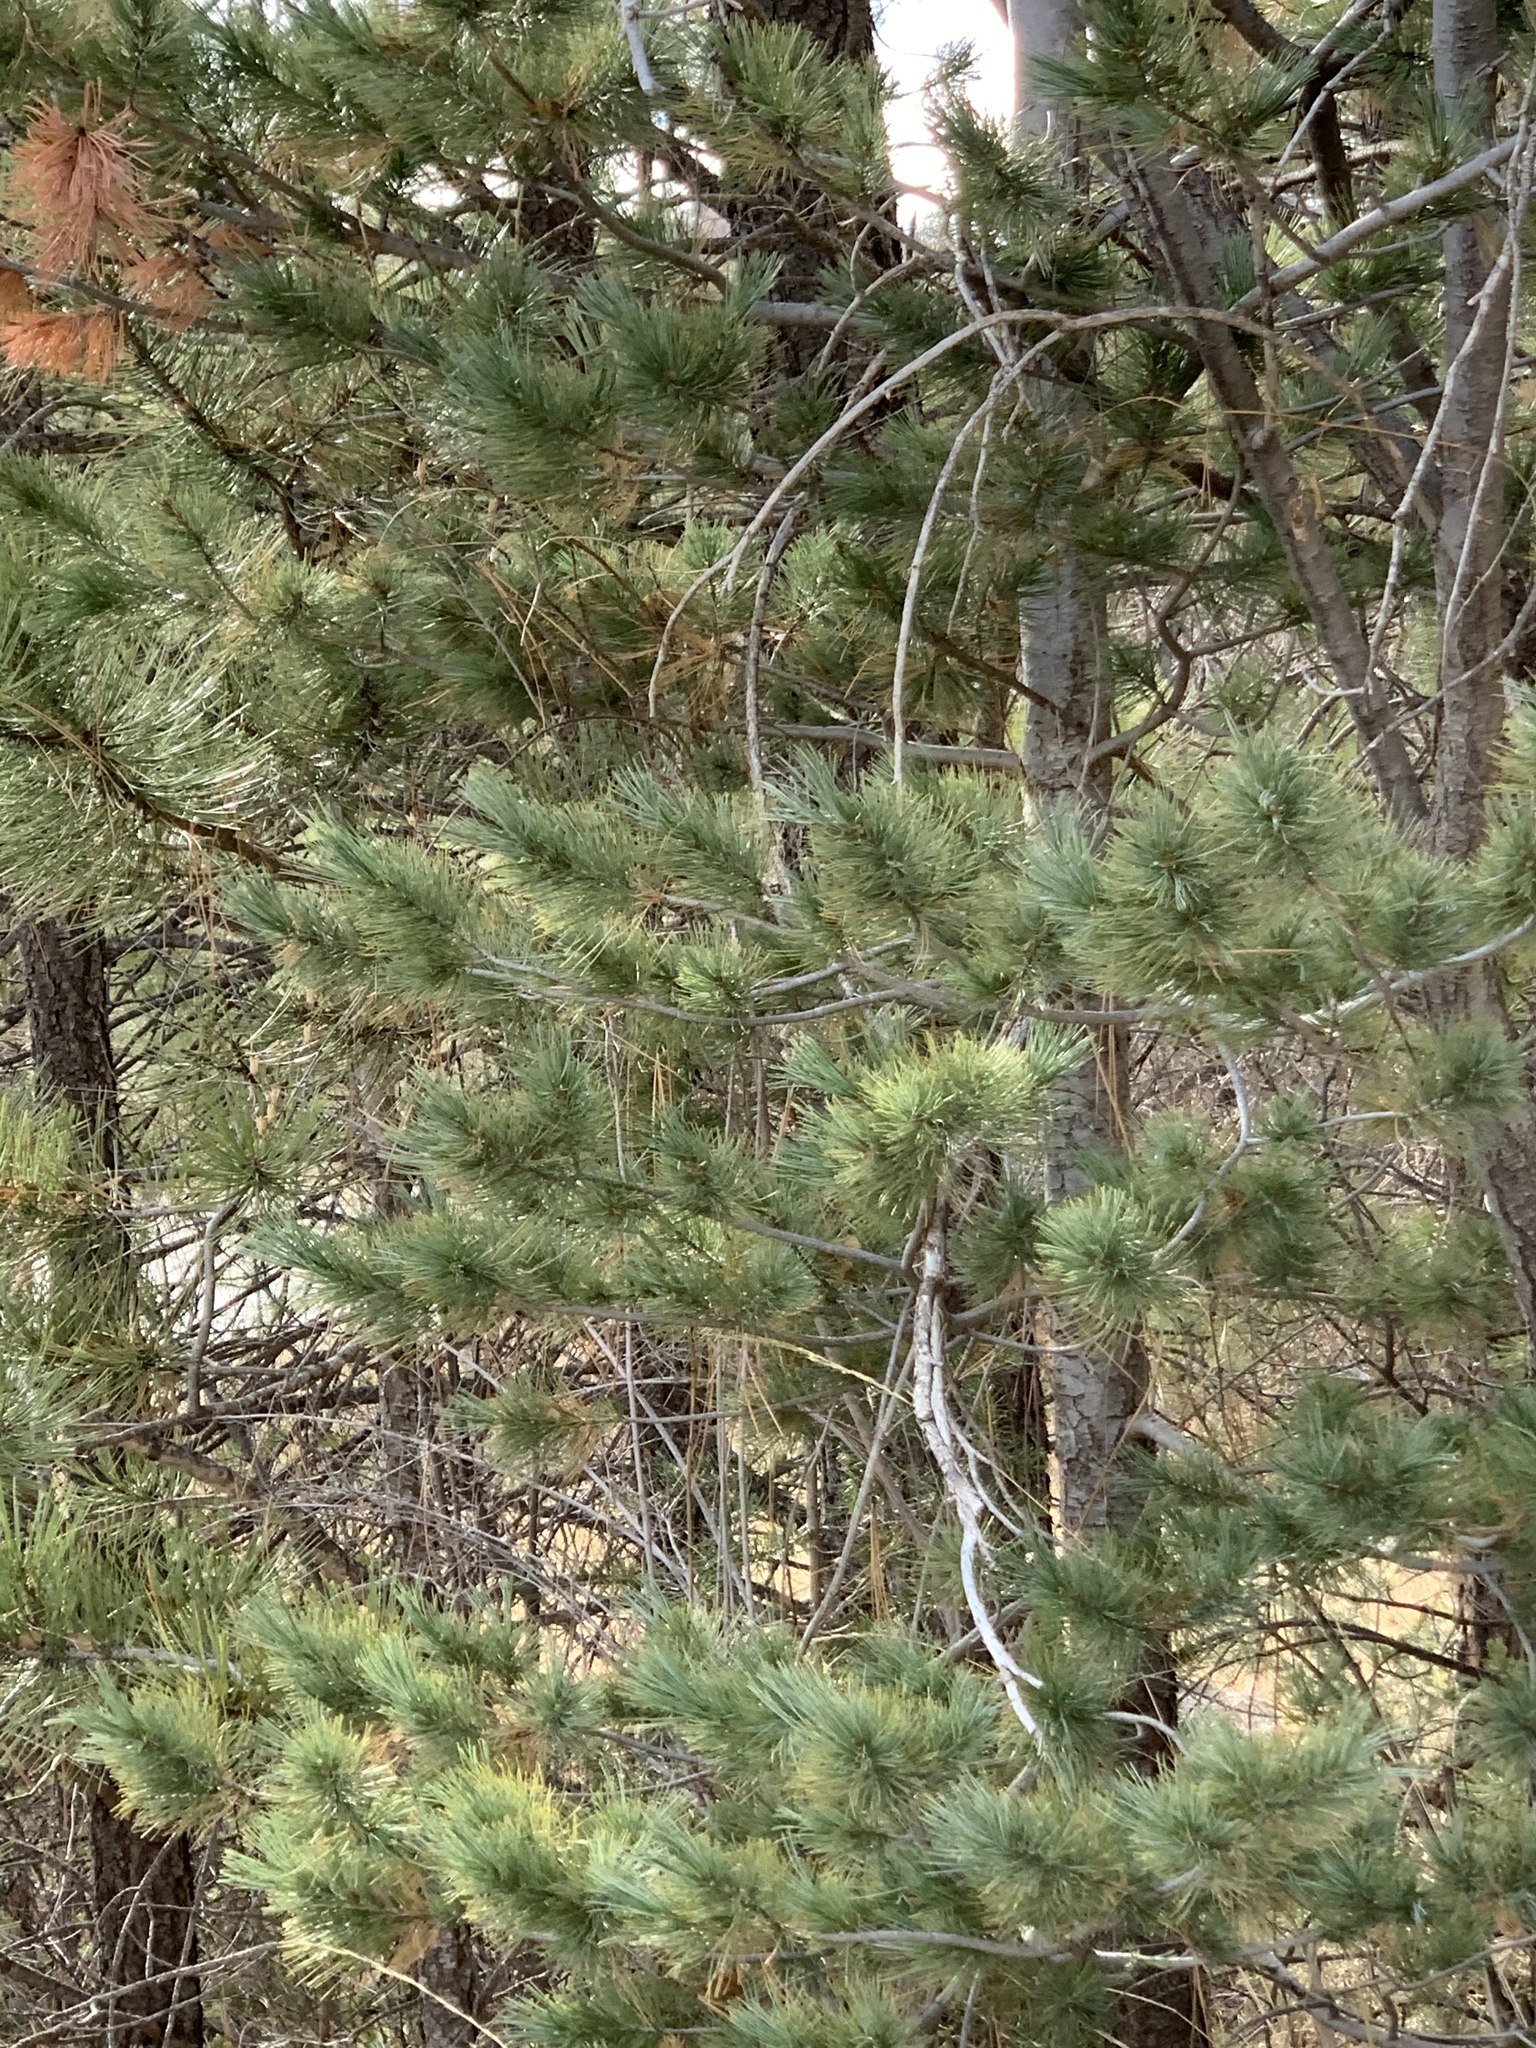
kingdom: Plantae
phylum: Tracheophyta
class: Pinopsida
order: Pinales
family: Pinaceae
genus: Pinus
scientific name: Pinus strobiformis
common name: Southwestern white pine
